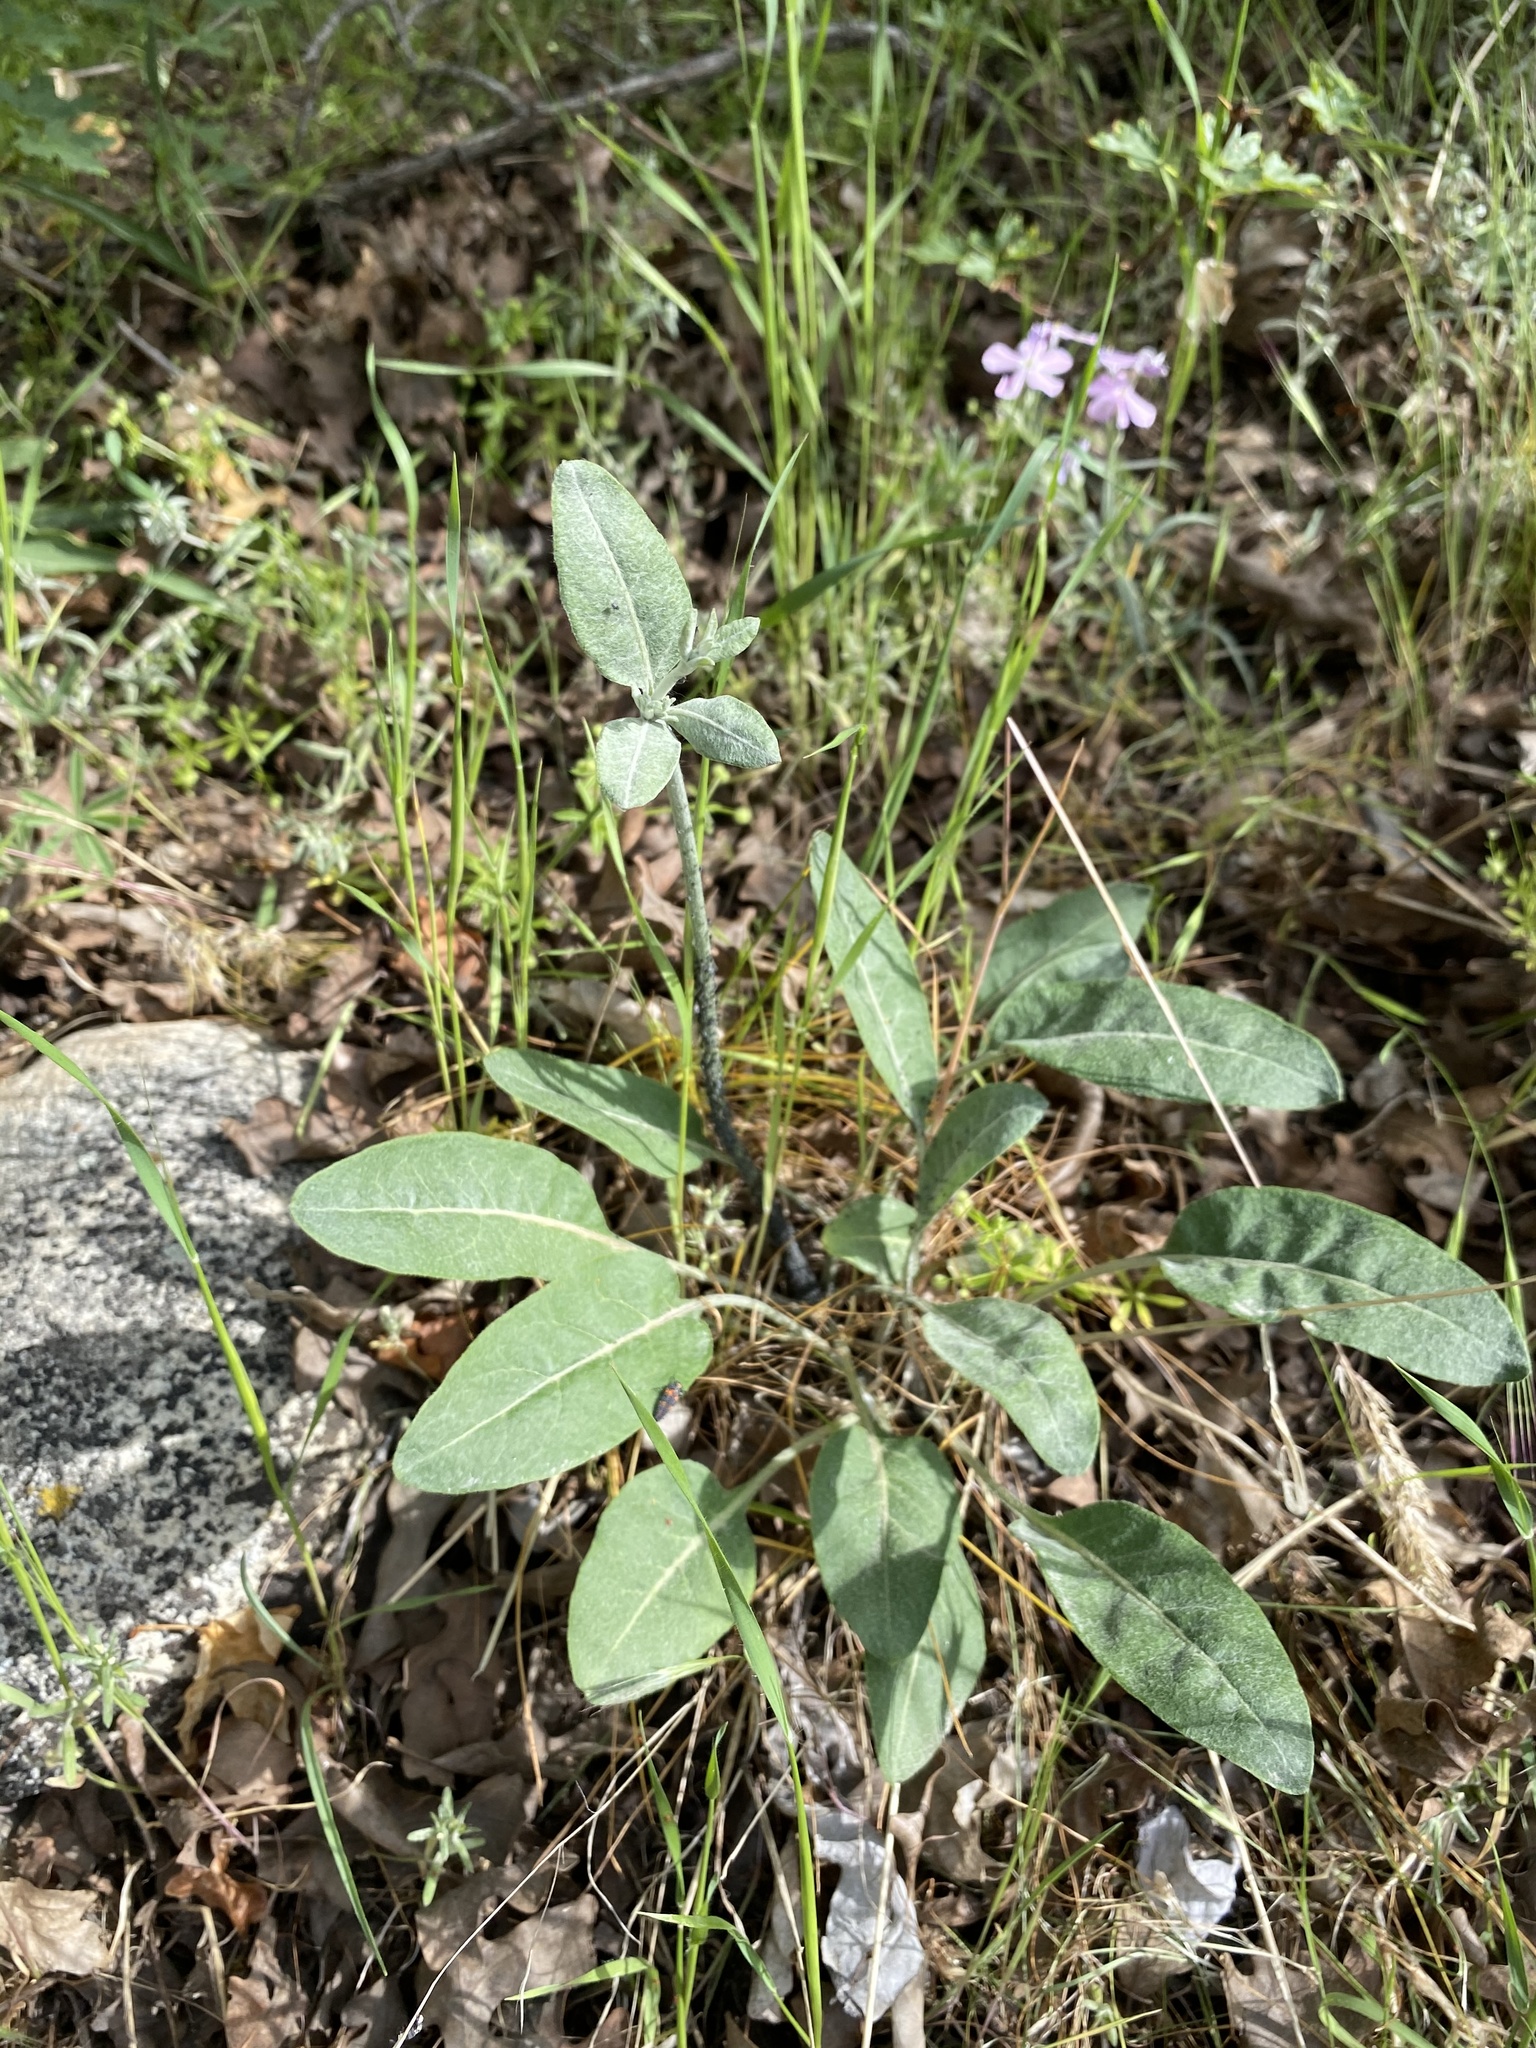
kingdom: Plantae
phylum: Tracheophyta
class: Magnoliopsida
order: Caryophyllales
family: Polygonaceae
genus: Eriogonum
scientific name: Eriogonum racemosum
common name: Redroot wild buckwheat
